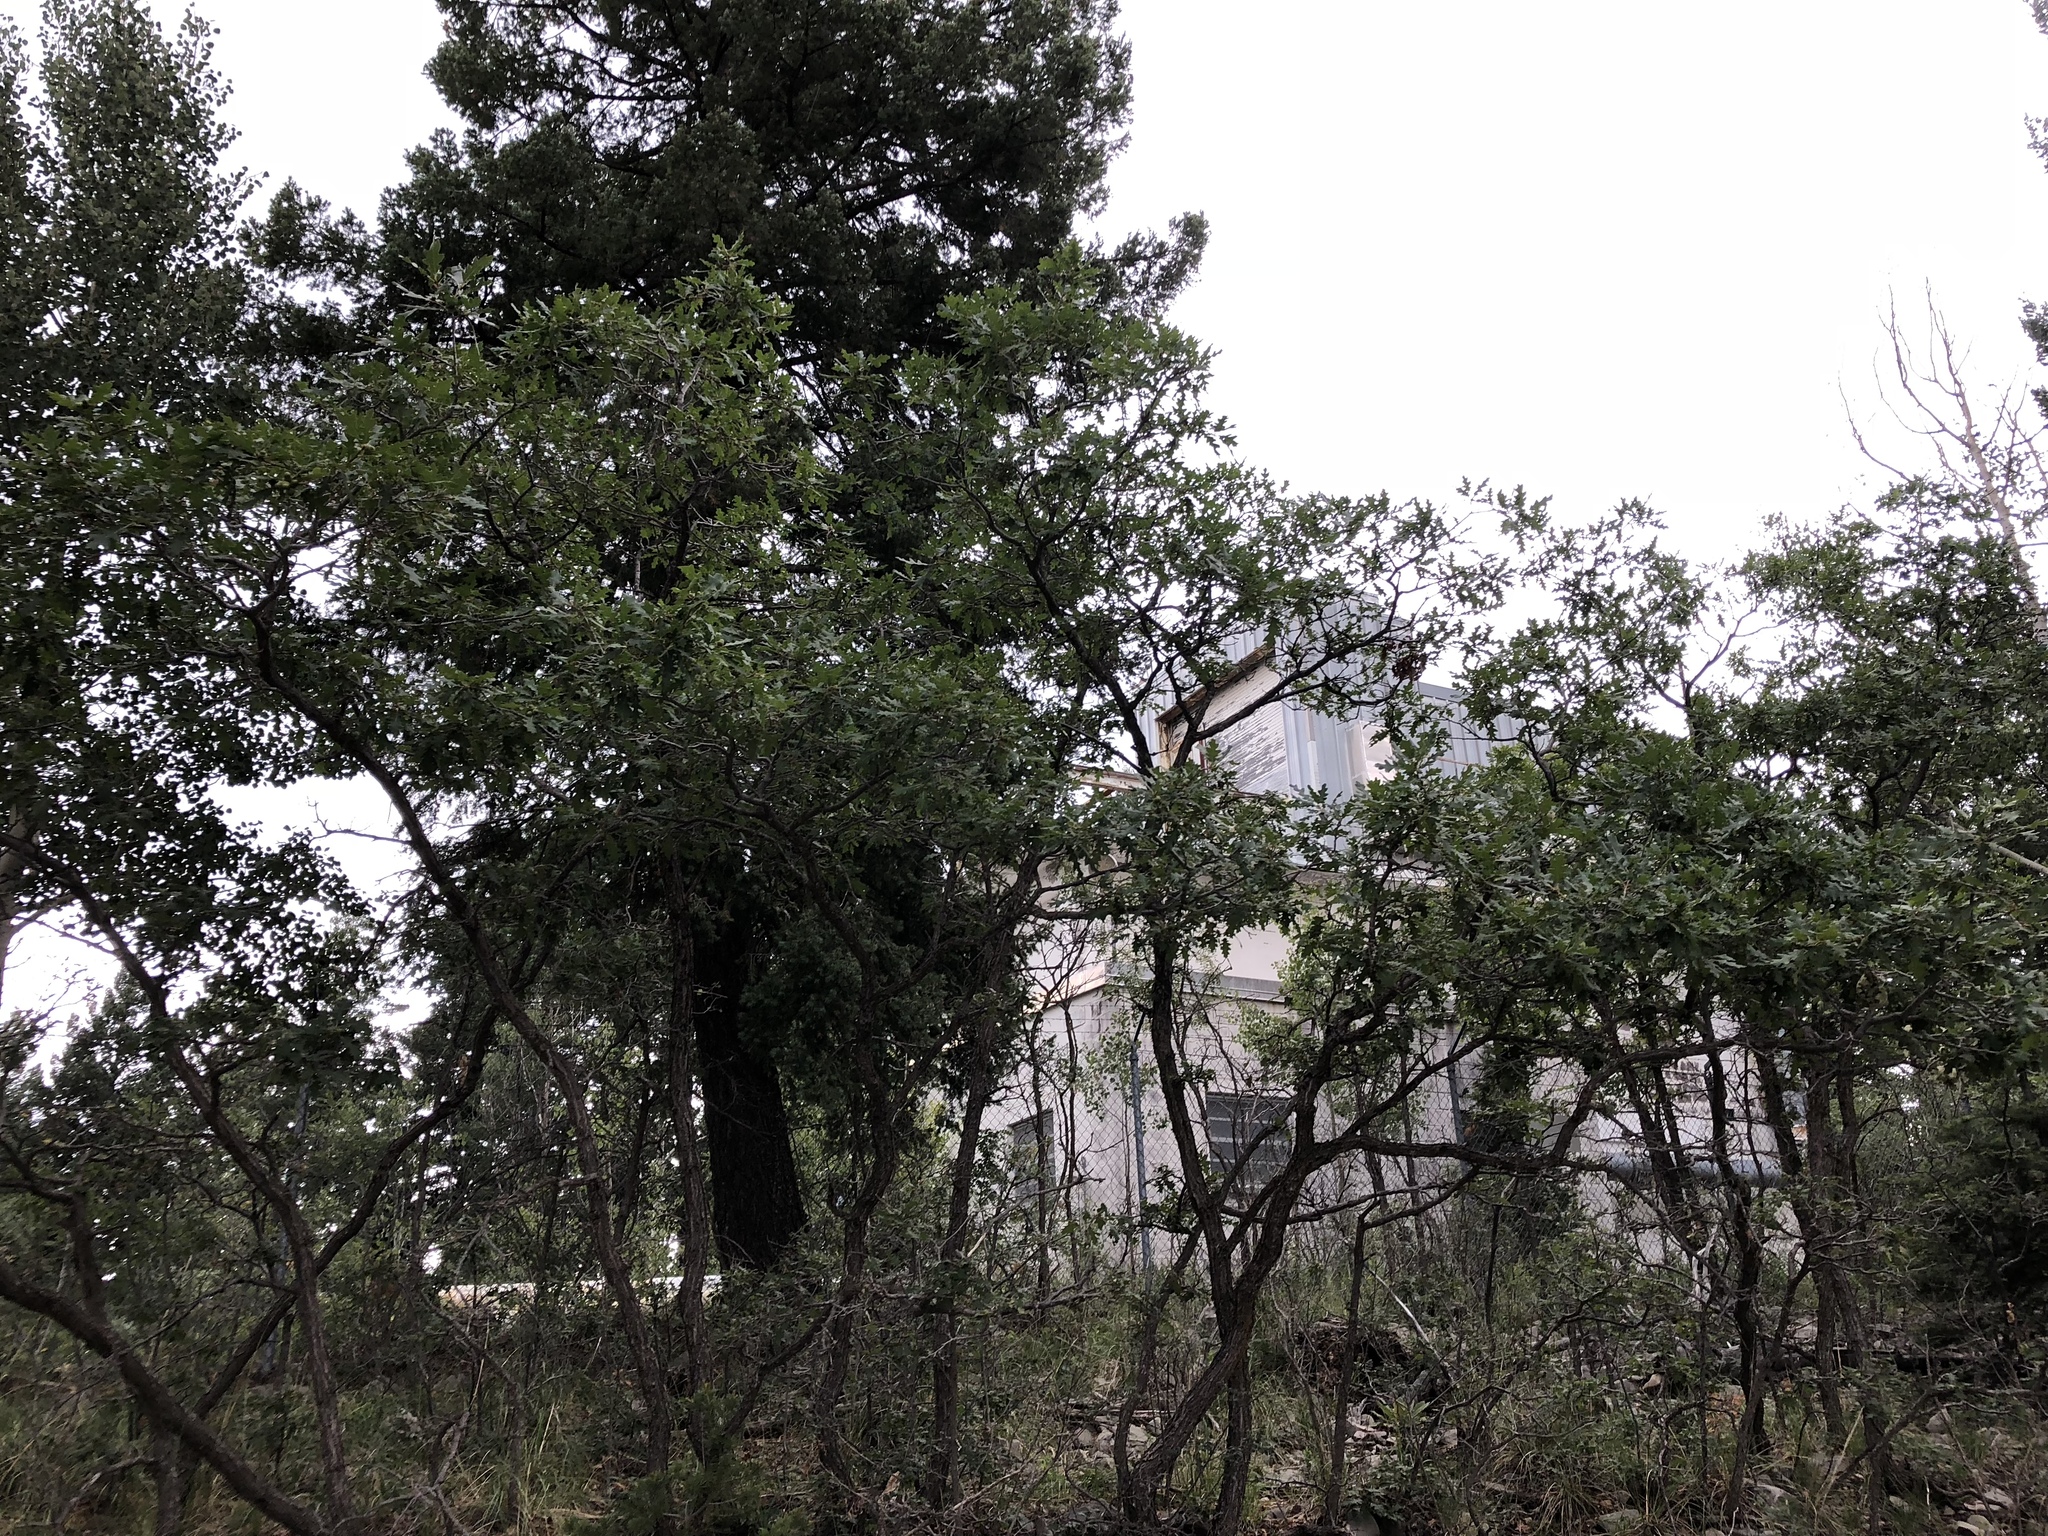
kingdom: Plantae
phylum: Tracheophyta
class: Magnoliopsida
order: Fabales
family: Fabaceae
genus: Robinia
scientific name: Robinia neomexicana
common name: New mexico locust
